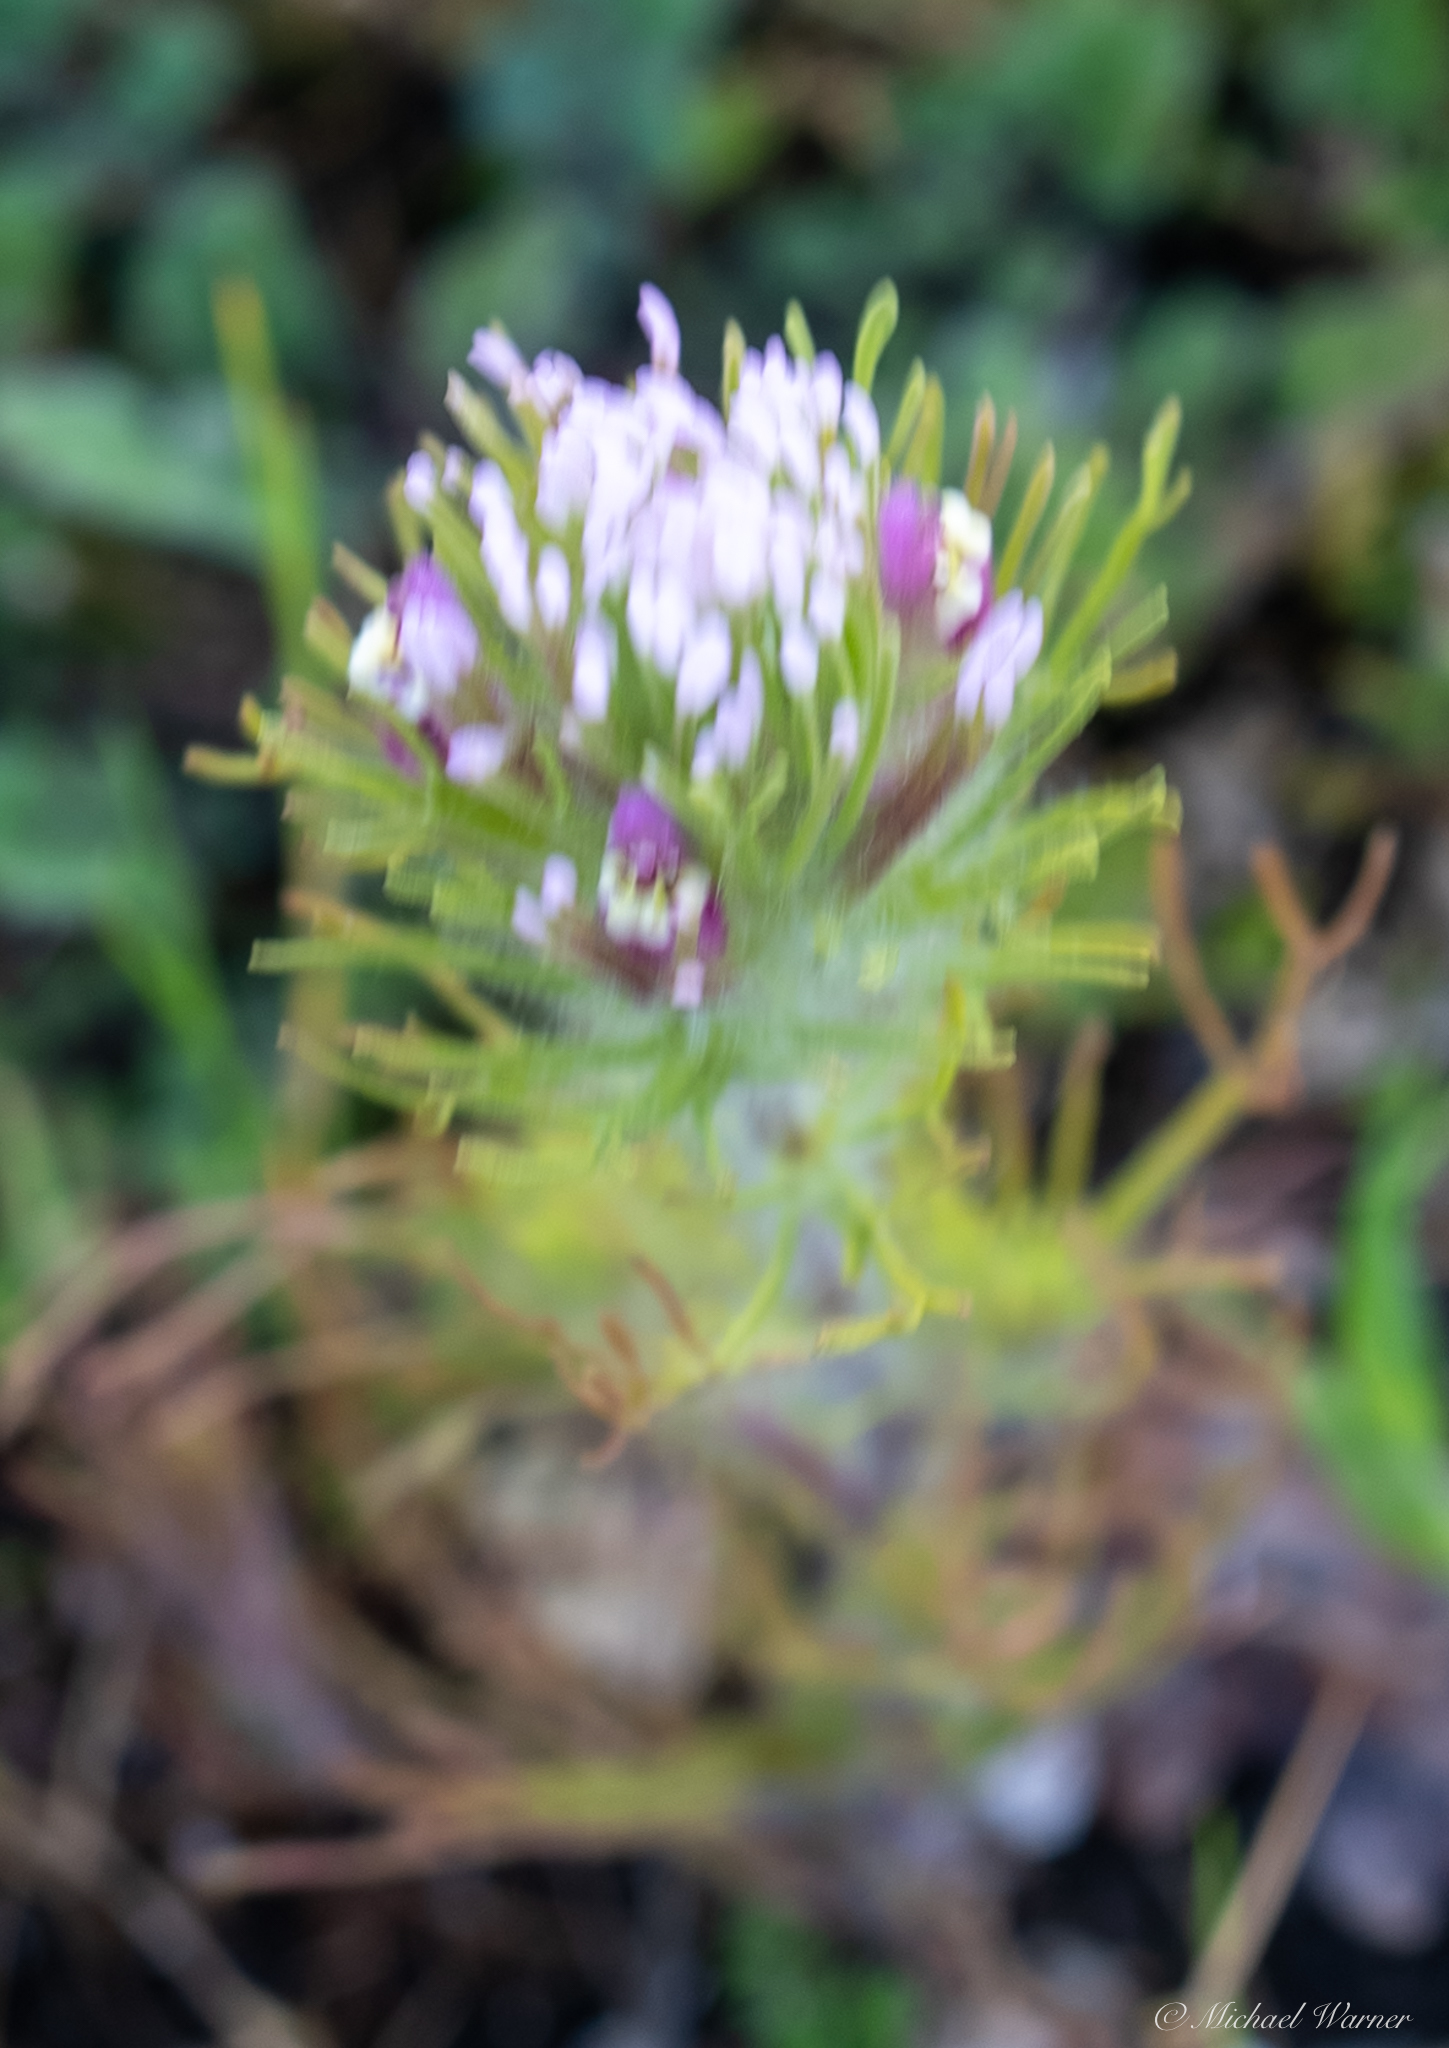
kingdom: Plantae
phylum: Tracheophyta
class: Magnoliopsida
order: Lamiales
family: Orobanchaceae
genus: Castilleja
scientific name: Castilleja exserta
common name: Purple owl-clover
